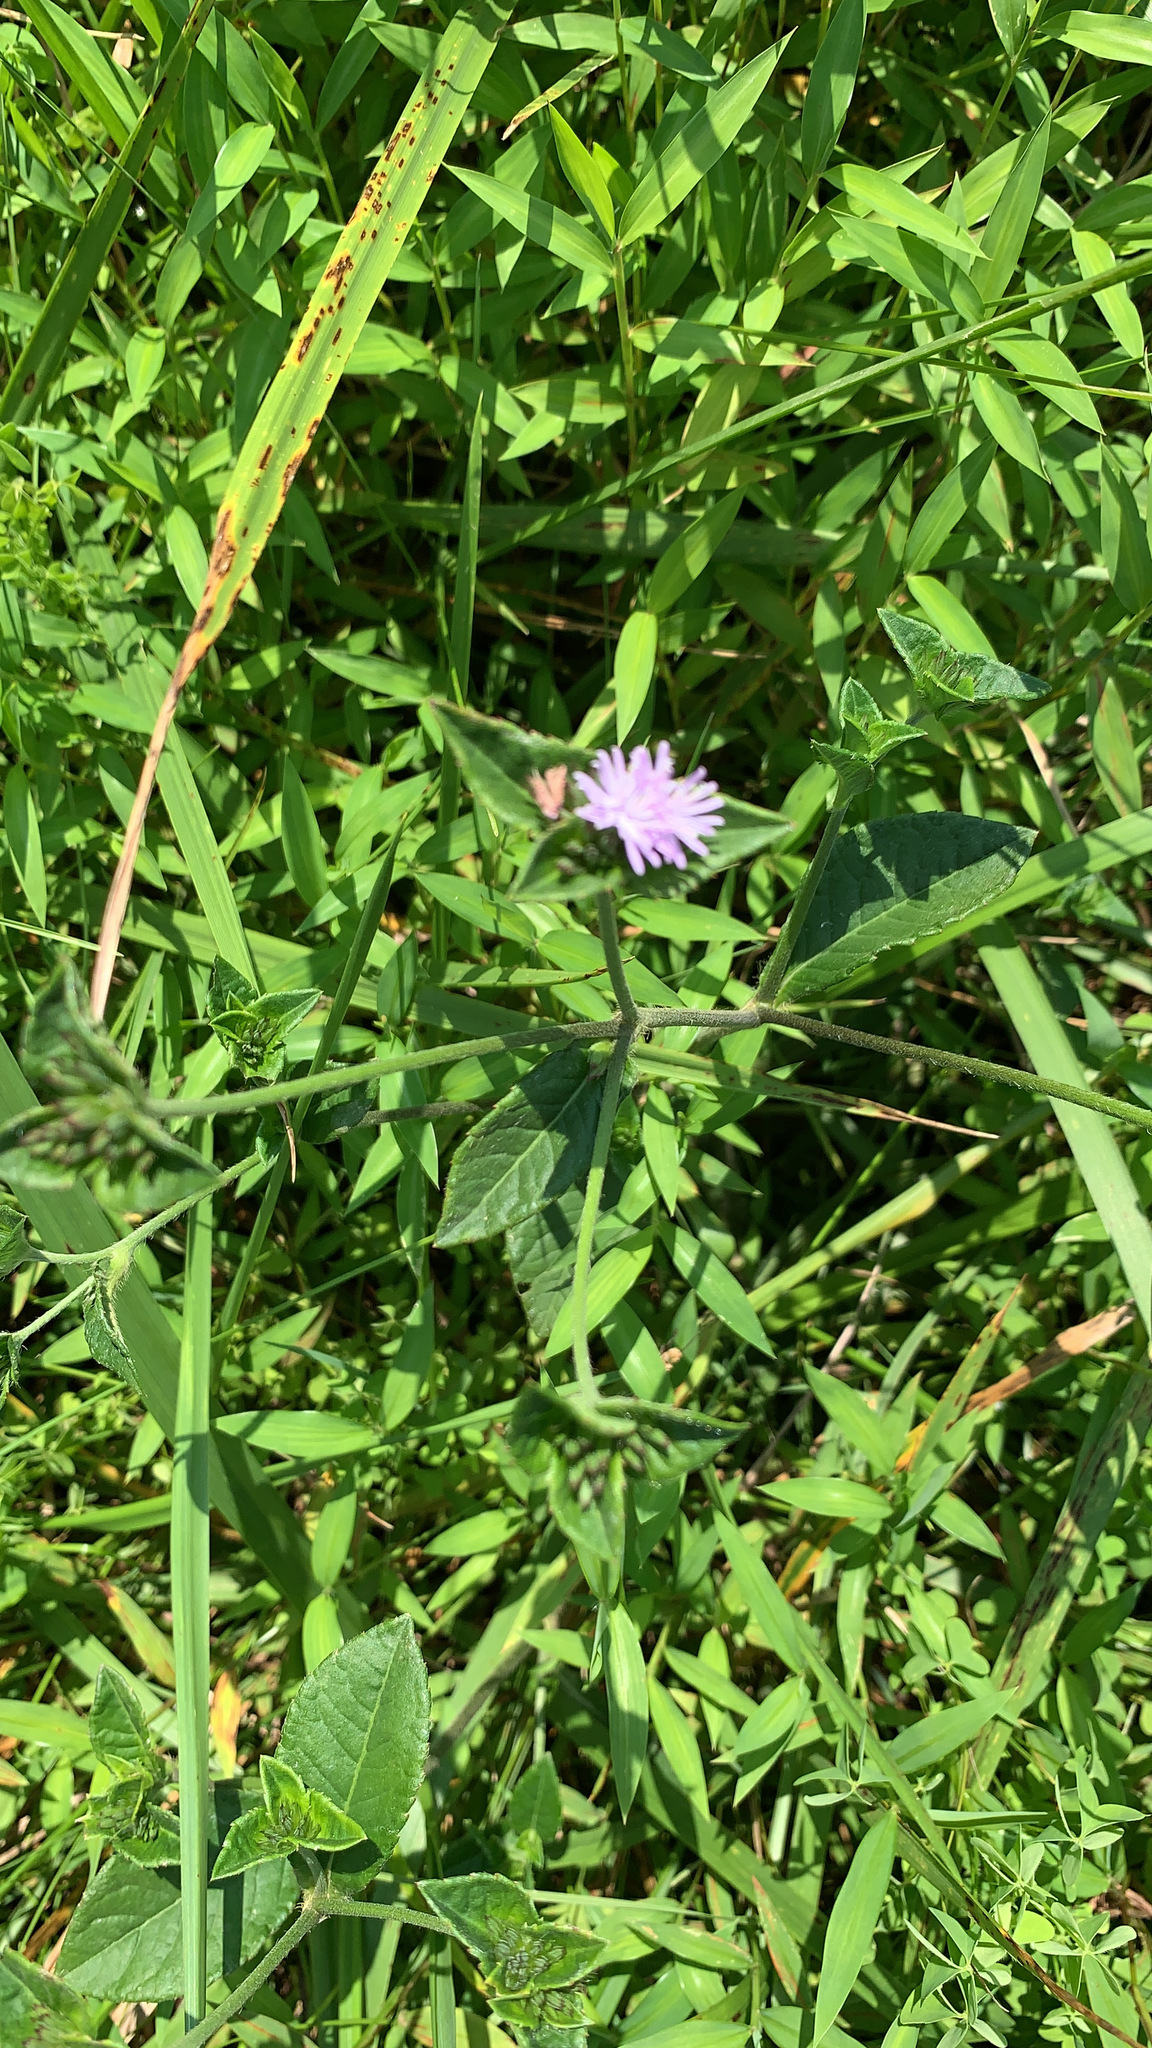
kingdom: Plantae
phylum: Tracheophyta
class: Magnoliopsida
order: Asterales
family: Asteraceae
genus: Elephantopus
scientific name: Elephantopus carolinianus
